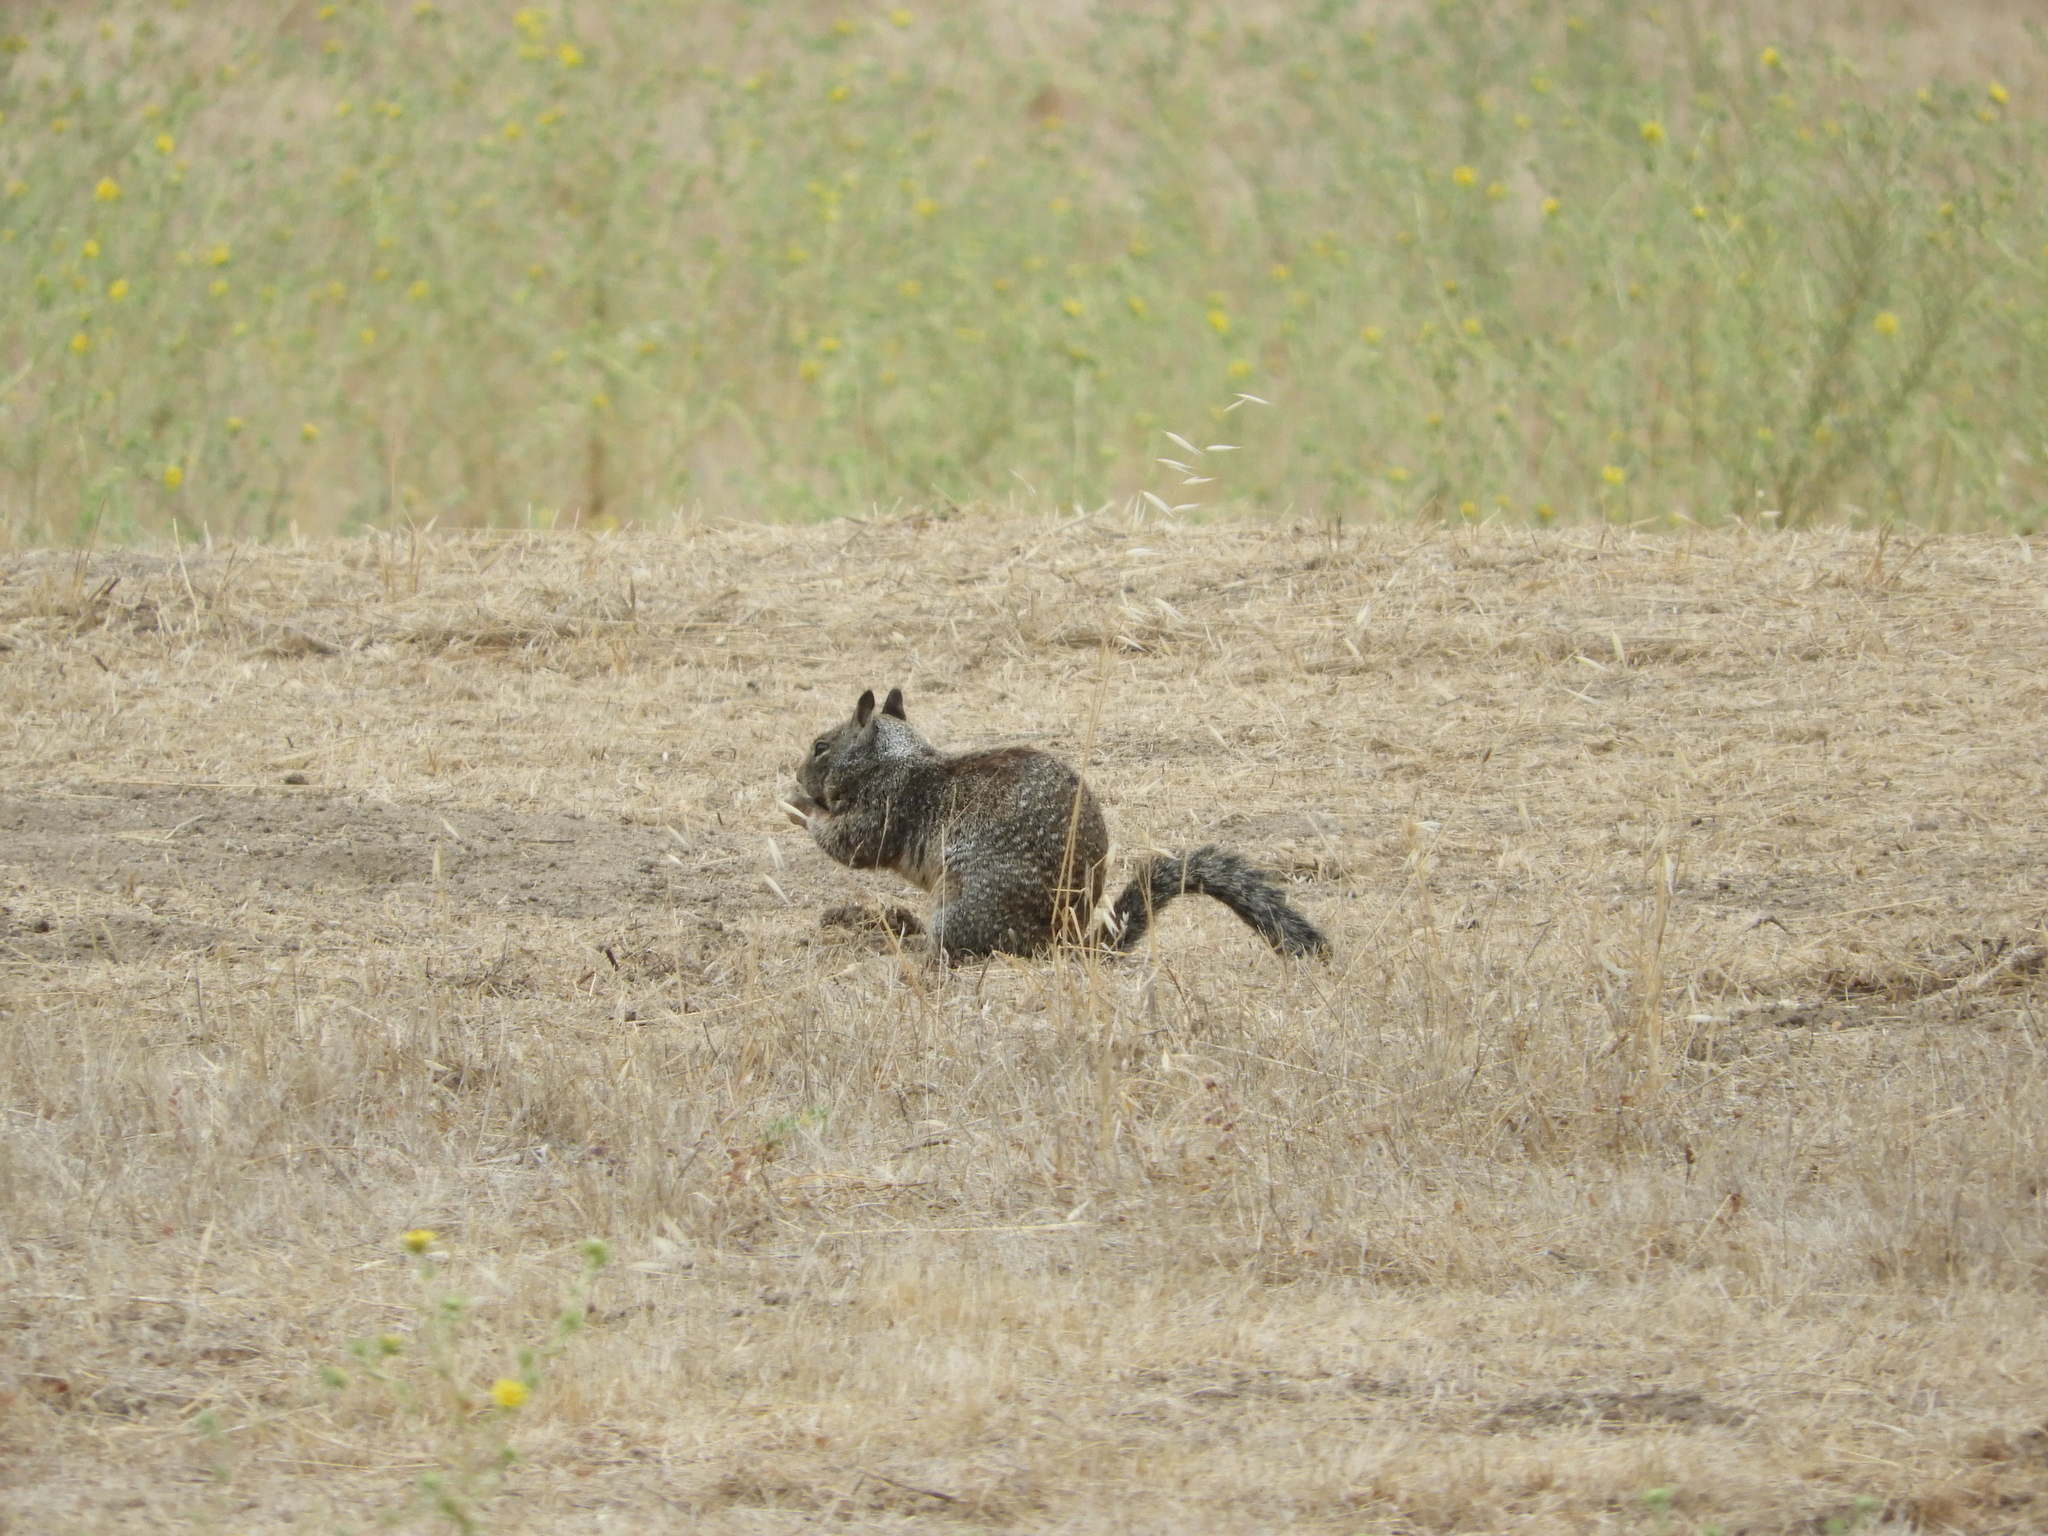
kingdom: Animalia
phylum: Chordata
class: Mammalia
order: Rodentia
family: Sciuridae
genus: Otospermophilus
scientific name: Otospermophilus beecheyi
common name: California ground squirrel
